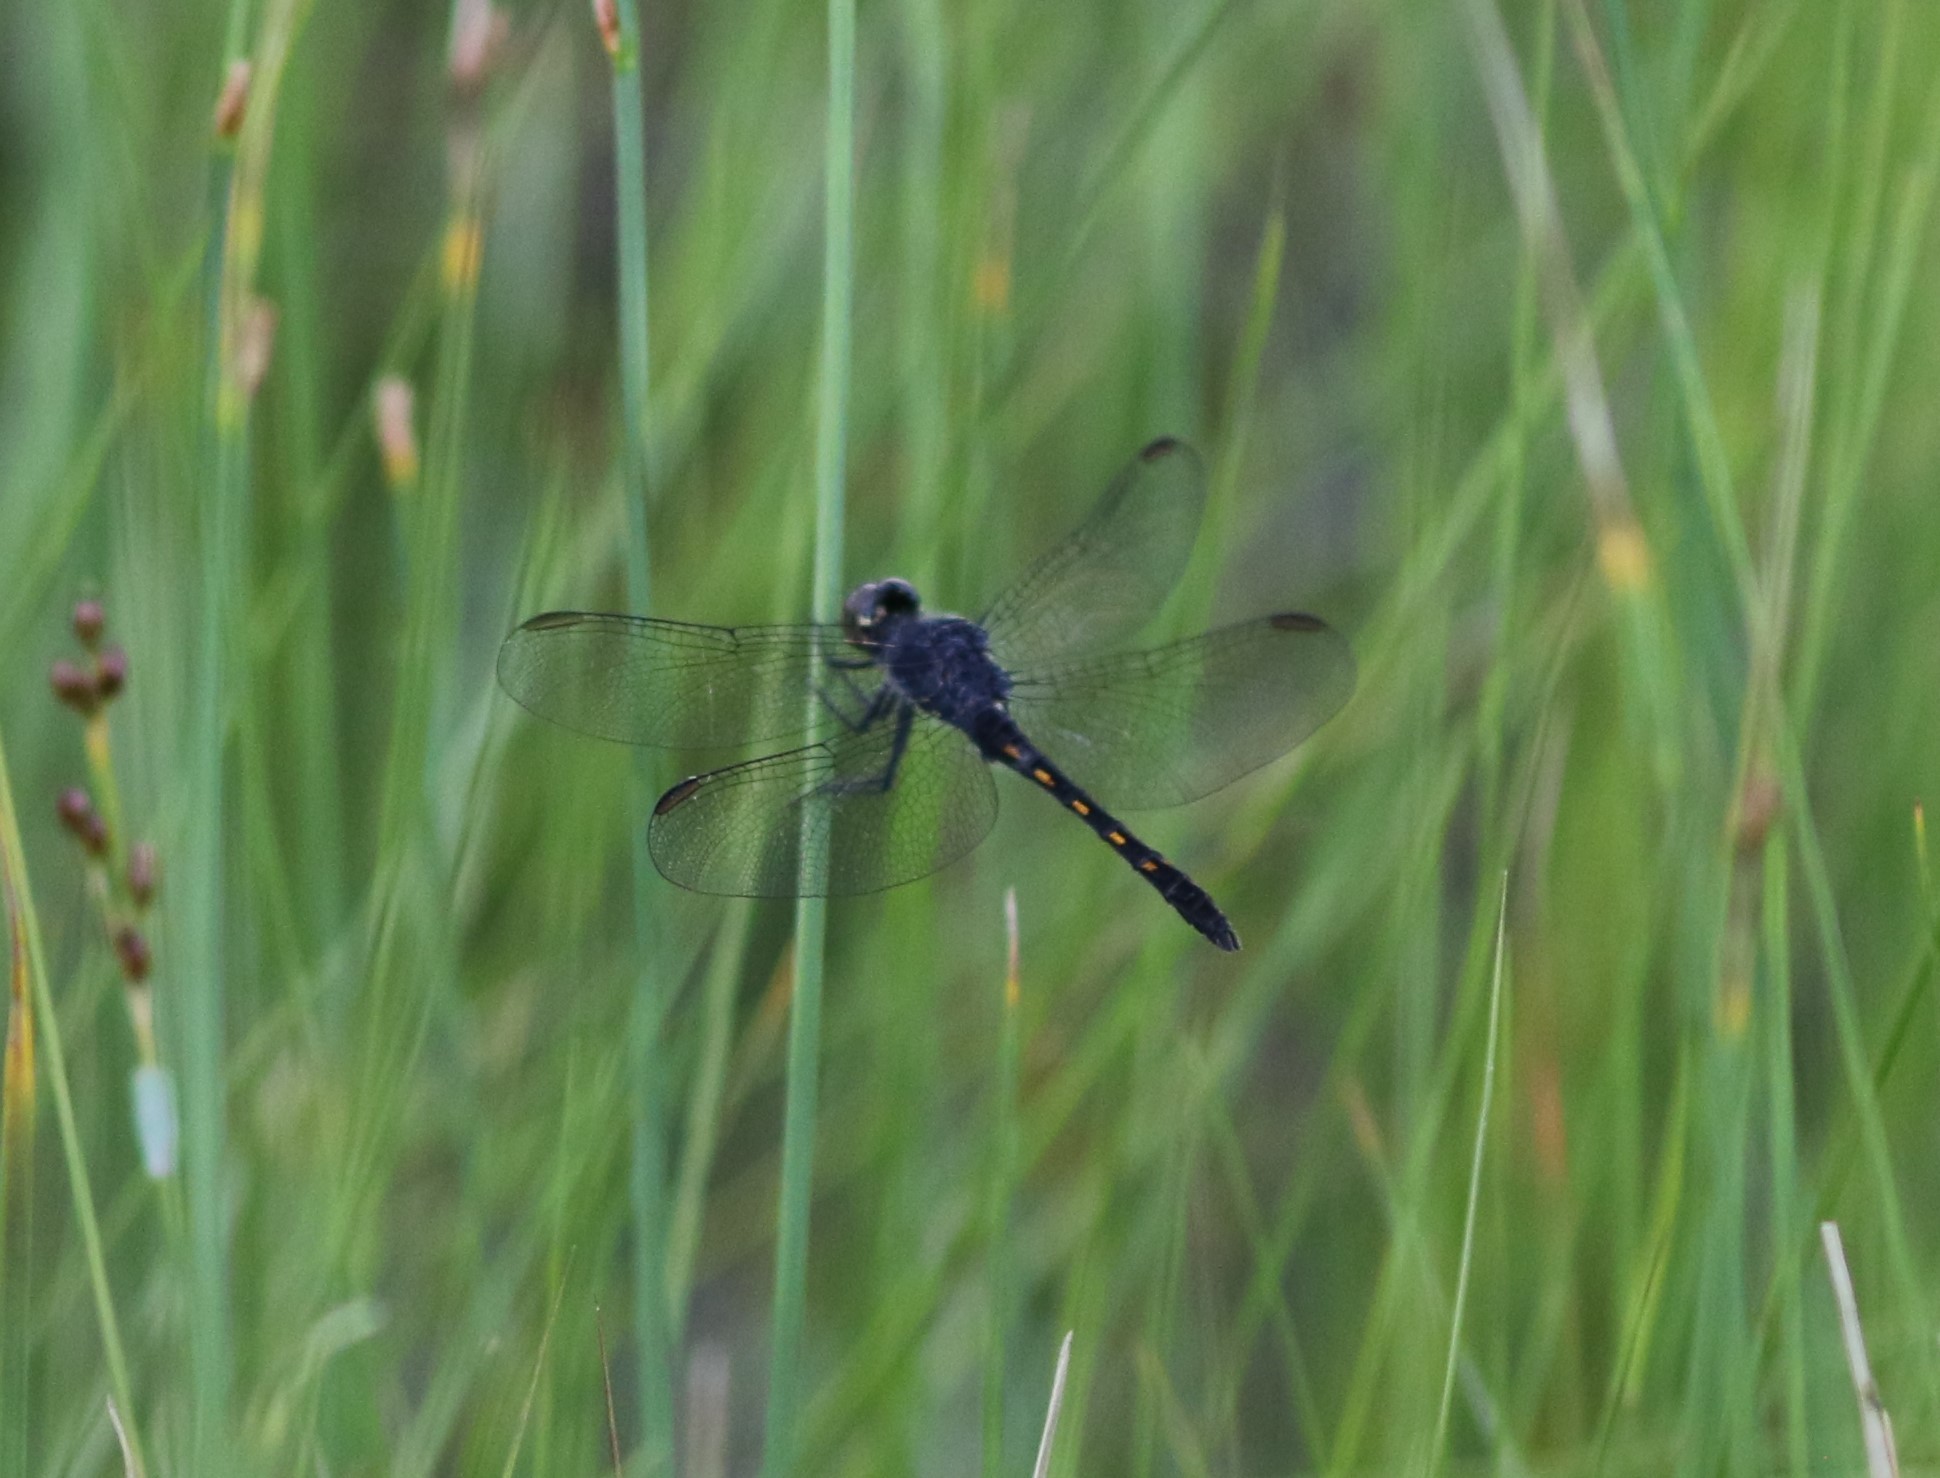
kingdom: Animalia
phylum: Arthropoda
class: Insecta
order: Odonata
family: Libellulidae
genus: Erythrodiplax
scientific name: Erythrodiplax berenice
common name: Seaside dragonlet
